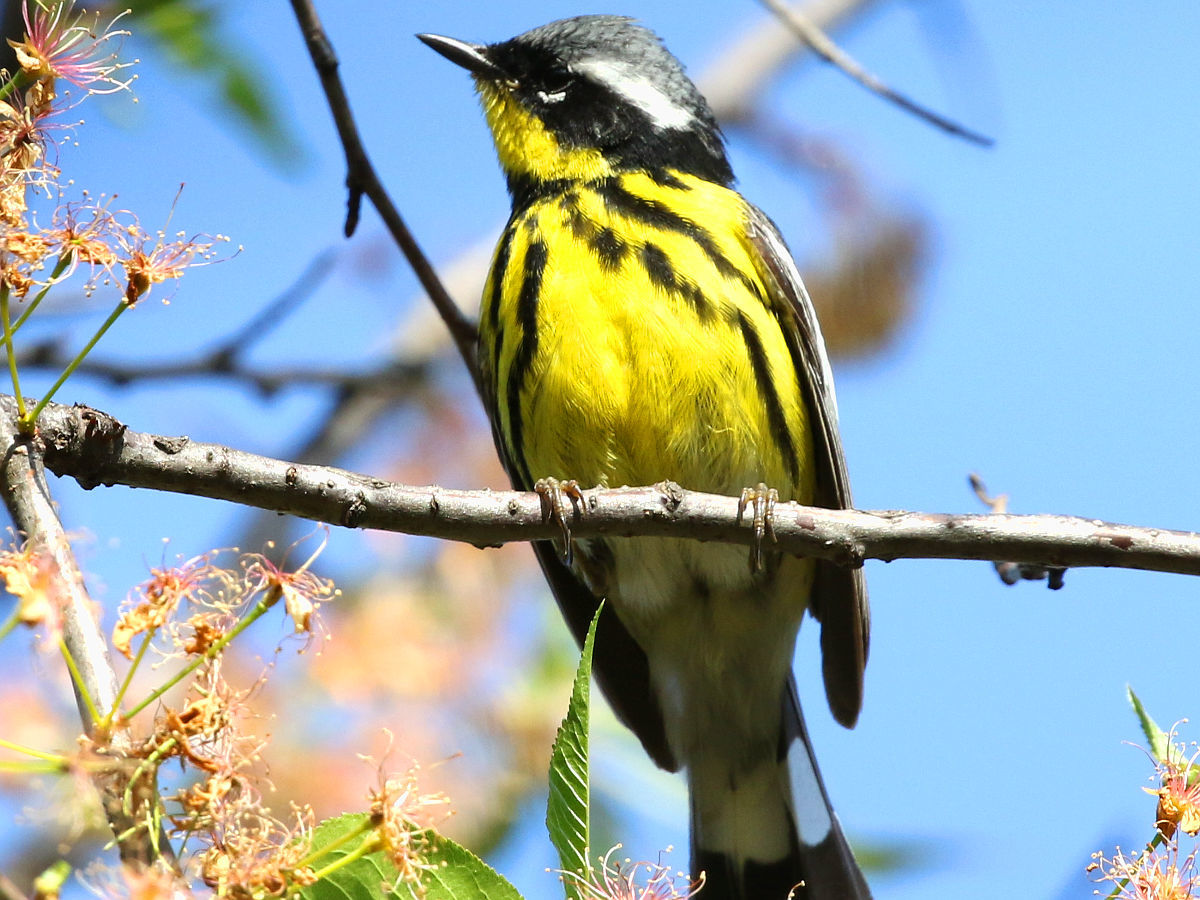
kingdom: Animalia
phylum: Chordata
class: Aves
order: Passeriformes
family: Parulidae
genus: Setophaga
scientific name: Setophaga magnolia
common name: Magnolia warbler
